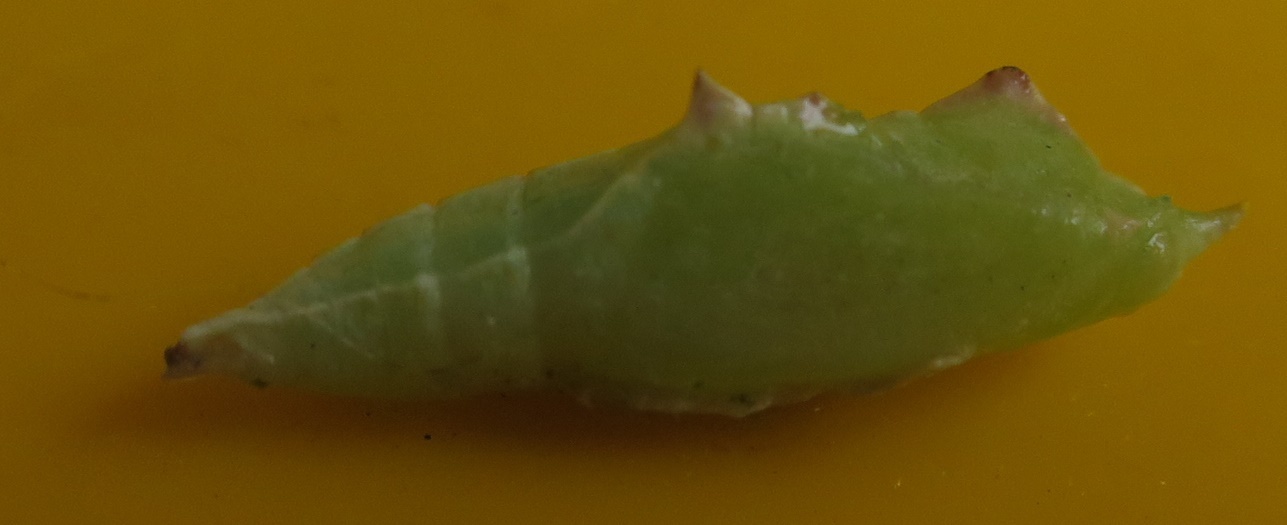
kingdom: Animalia
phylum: Arthropoda
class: Insecta
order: Lepidoptera
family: Pieridae
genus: Pieris
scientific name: Pieris rapae
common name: Small white
